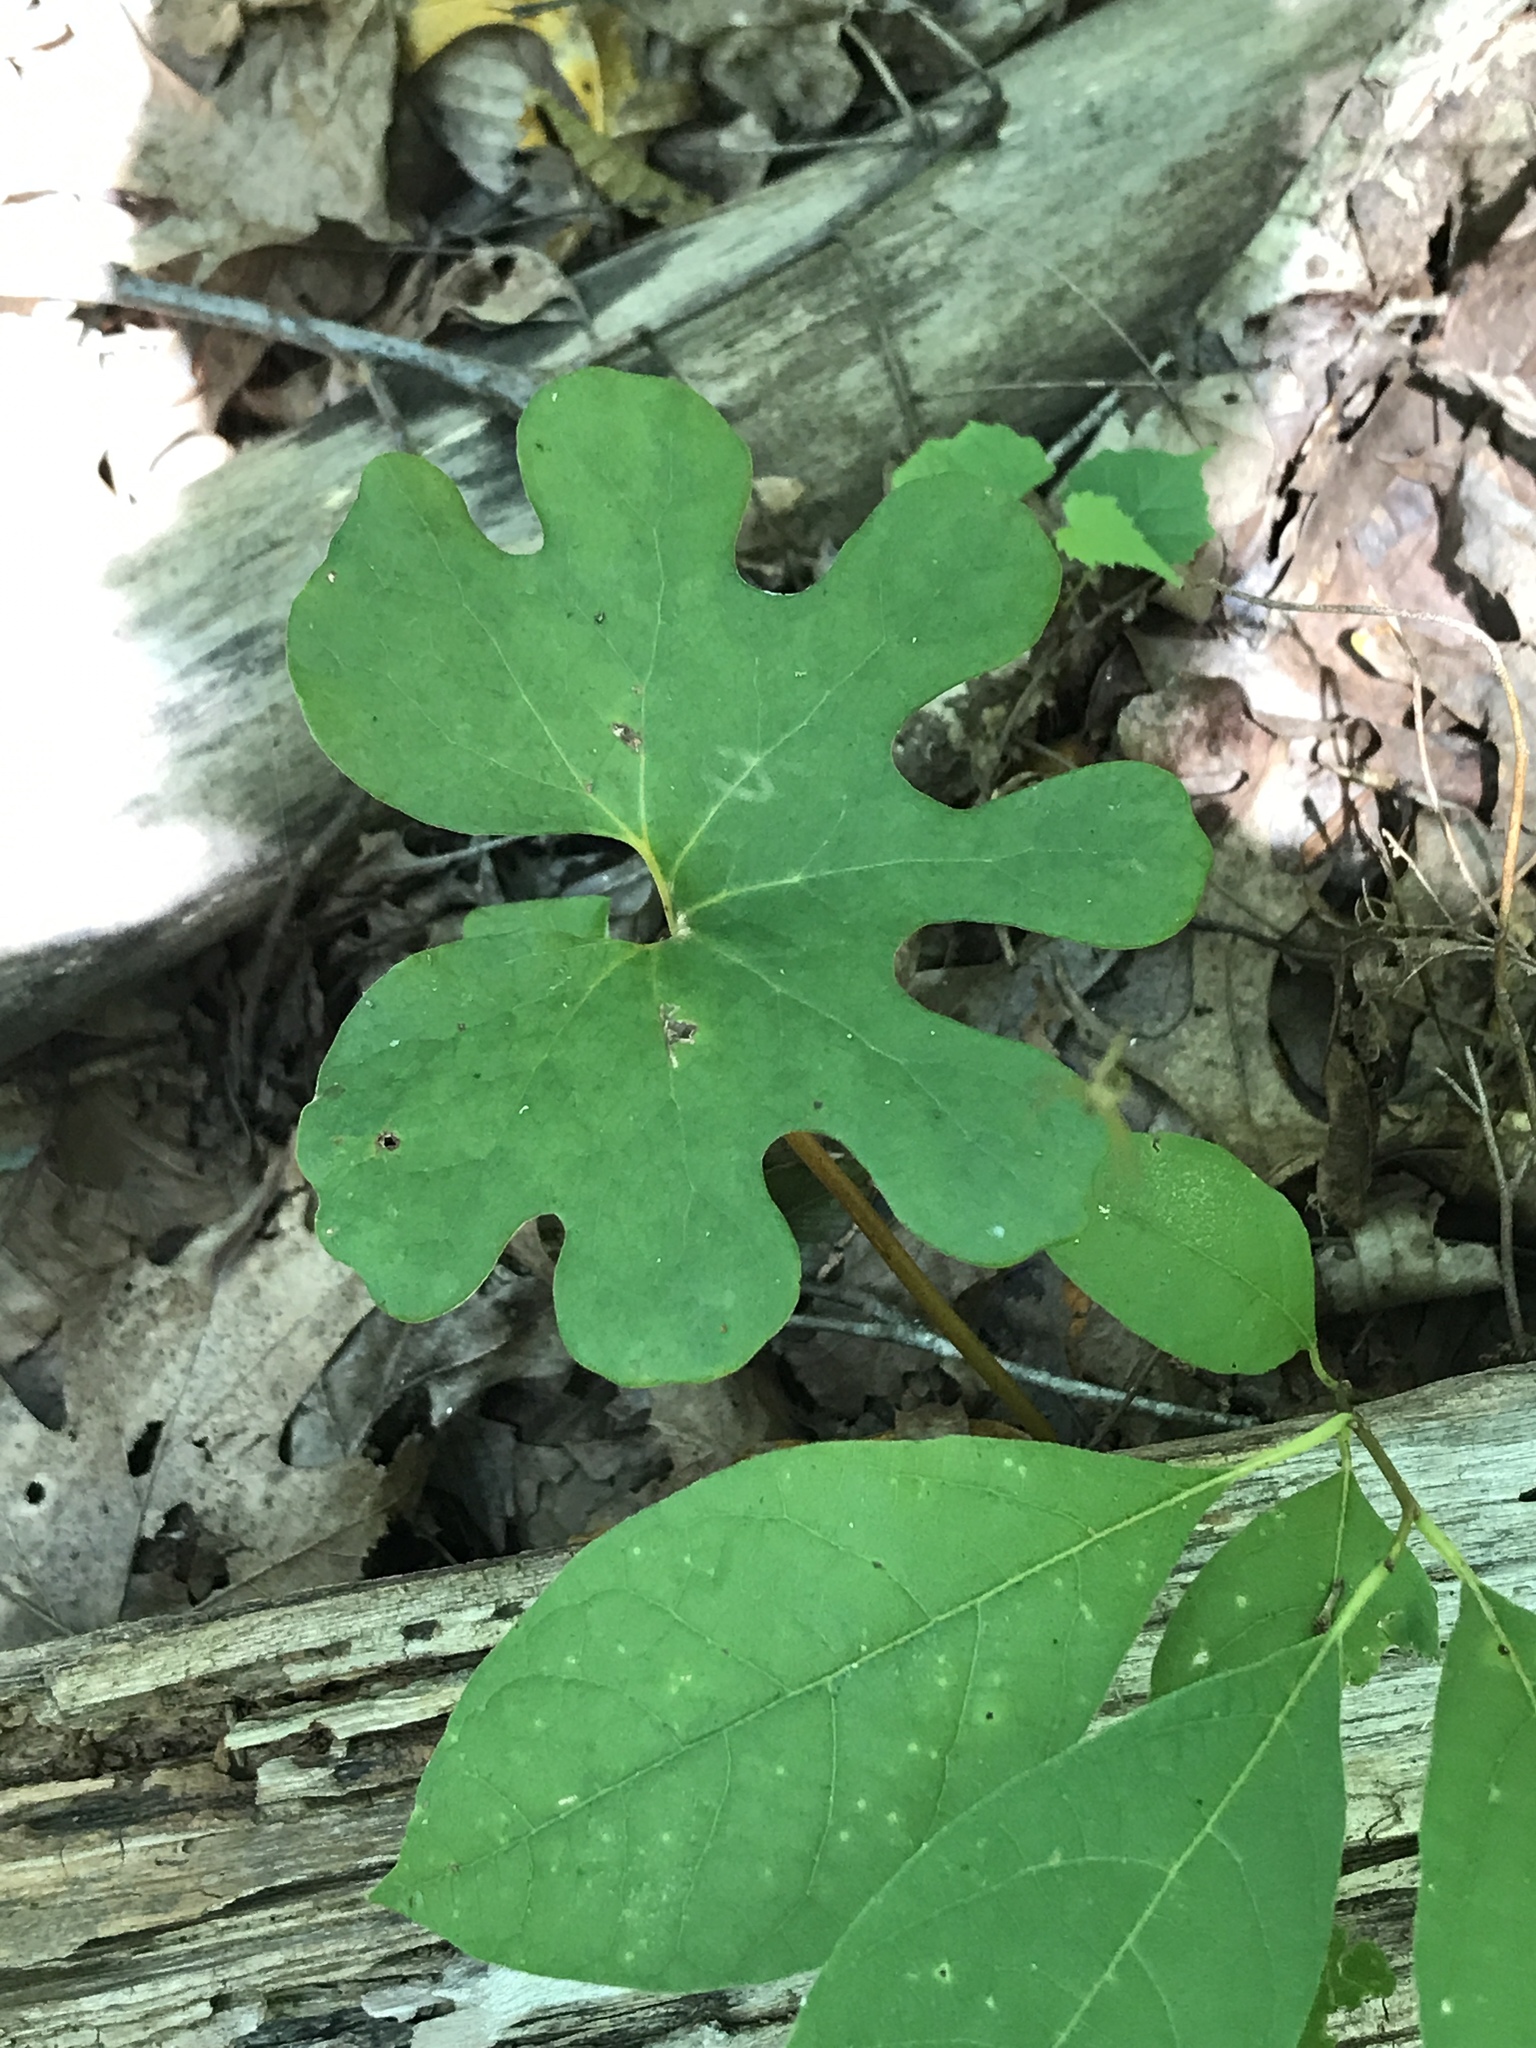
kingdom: Plantae
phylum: Tracheophyta
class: Magnoliopsida
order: Ranunculales
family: Papaveraceae
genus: Sanguinaria
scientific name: Sanguinaria canadensis
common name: Bloodroot
